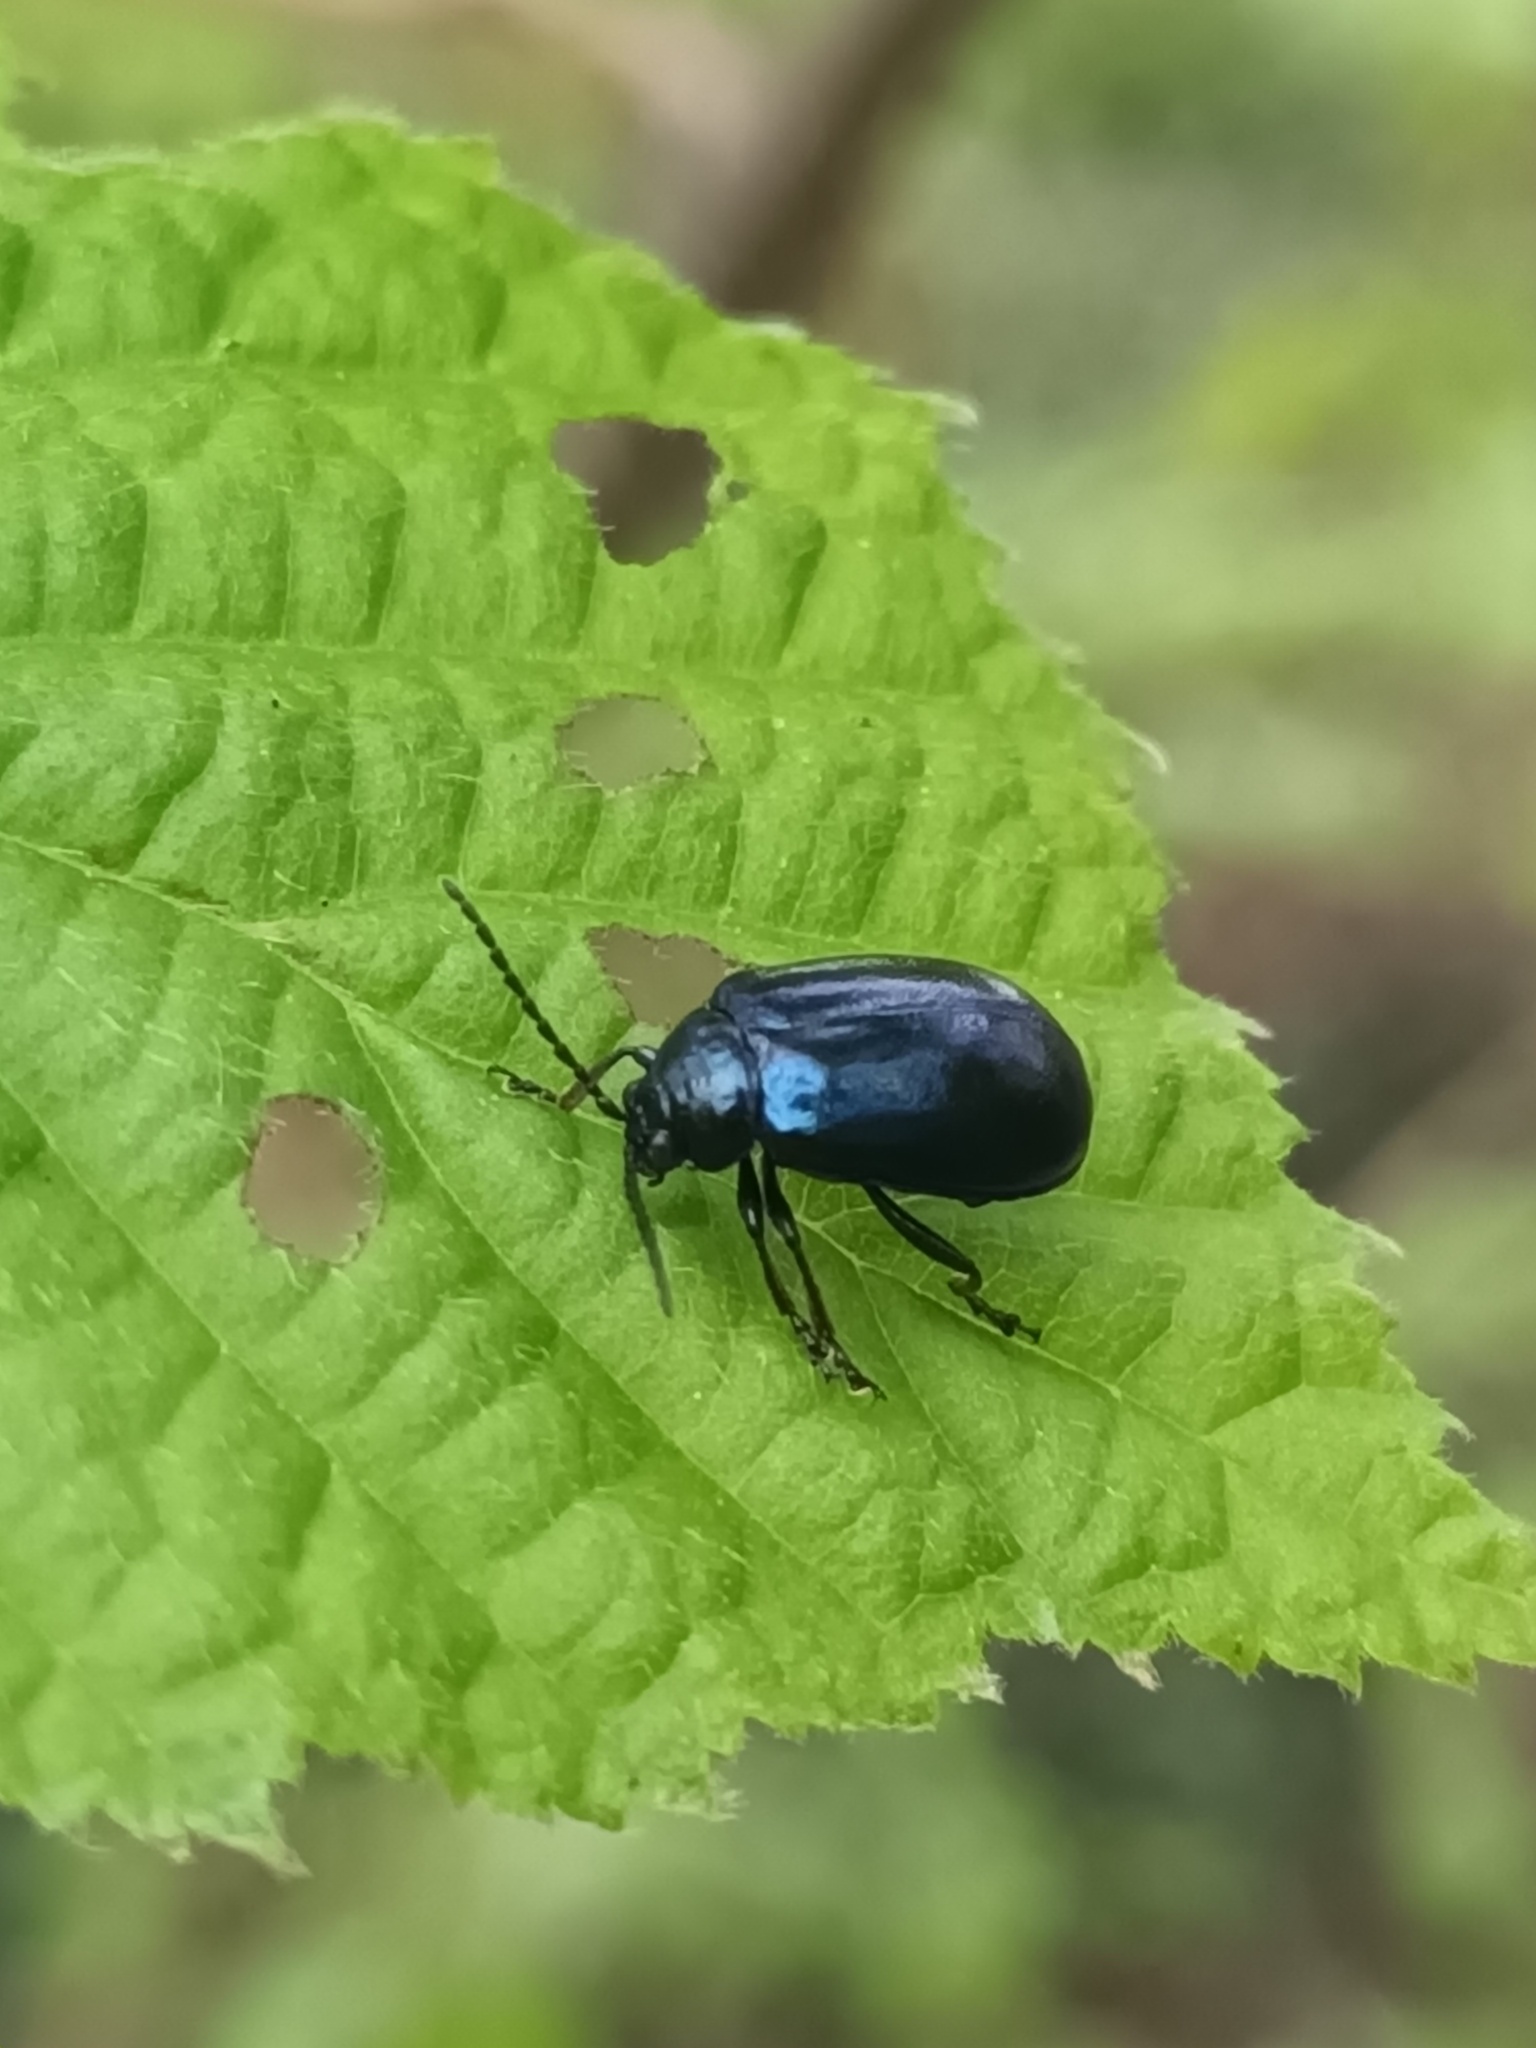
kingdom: Animalia
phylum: Arthropoda
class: Insecta
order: Coleoptera
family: Chrysomelidae
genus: Agelastica
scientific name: Agelastica alni
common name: Alder leaf beetle
